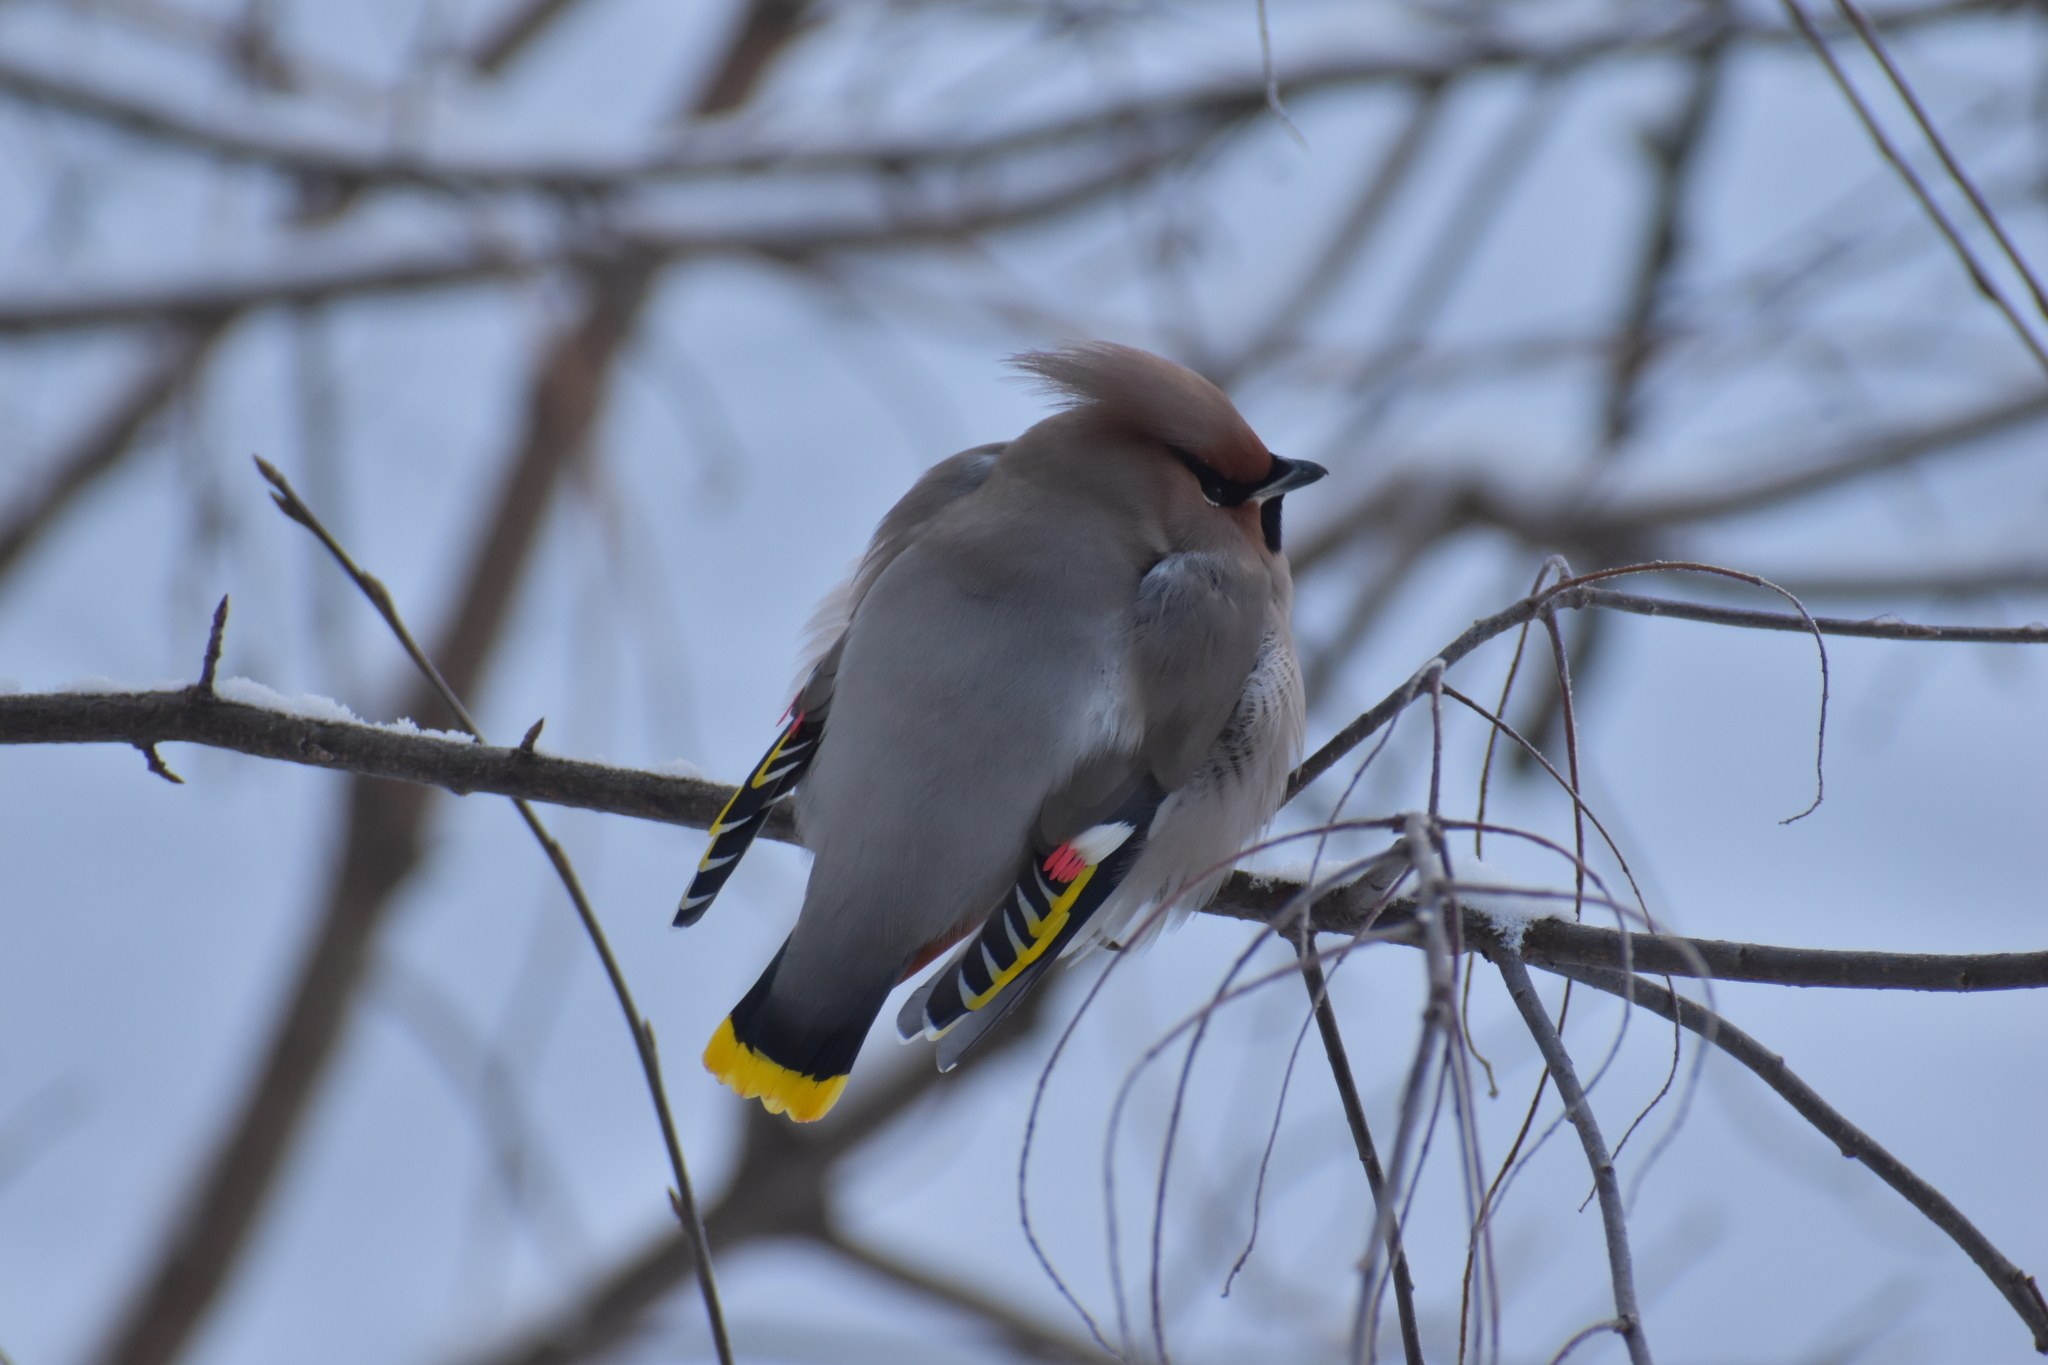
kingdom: Animalia
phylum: Chordata
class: Aves
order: Passeriformes
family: Bombycillidae
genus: Bombycilla
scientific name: Bombycilla garrulus
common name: Bohemian waxwing
